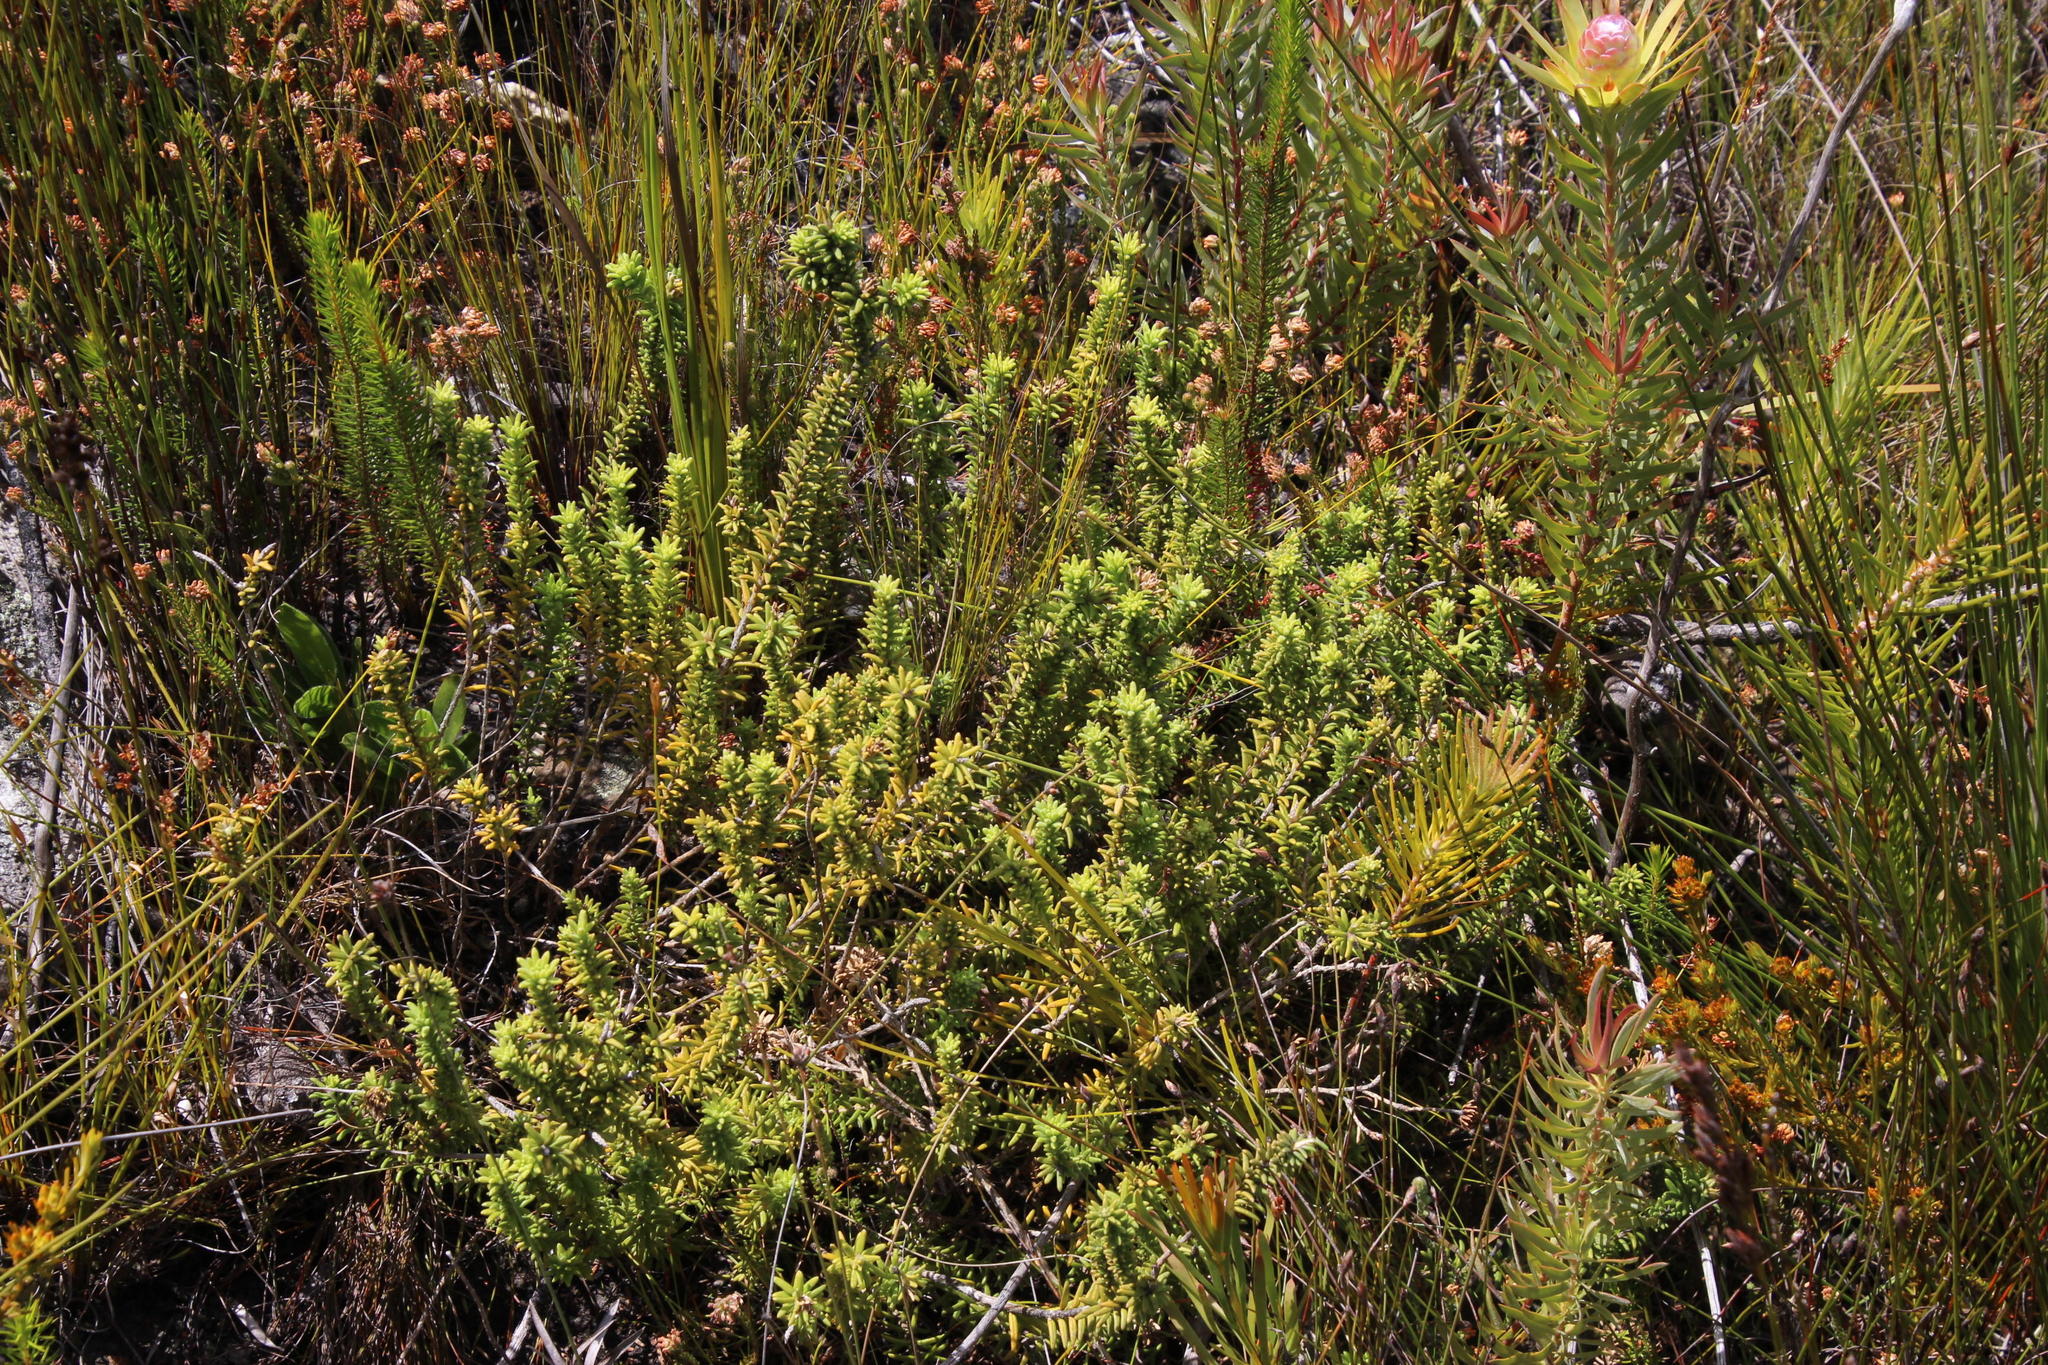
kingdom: Plantae
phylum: Tracheophyta
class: Magnoliopsida
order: Lamiales
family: Stilbaceae
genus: Campylostachys
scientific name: Campylostachys cernua
